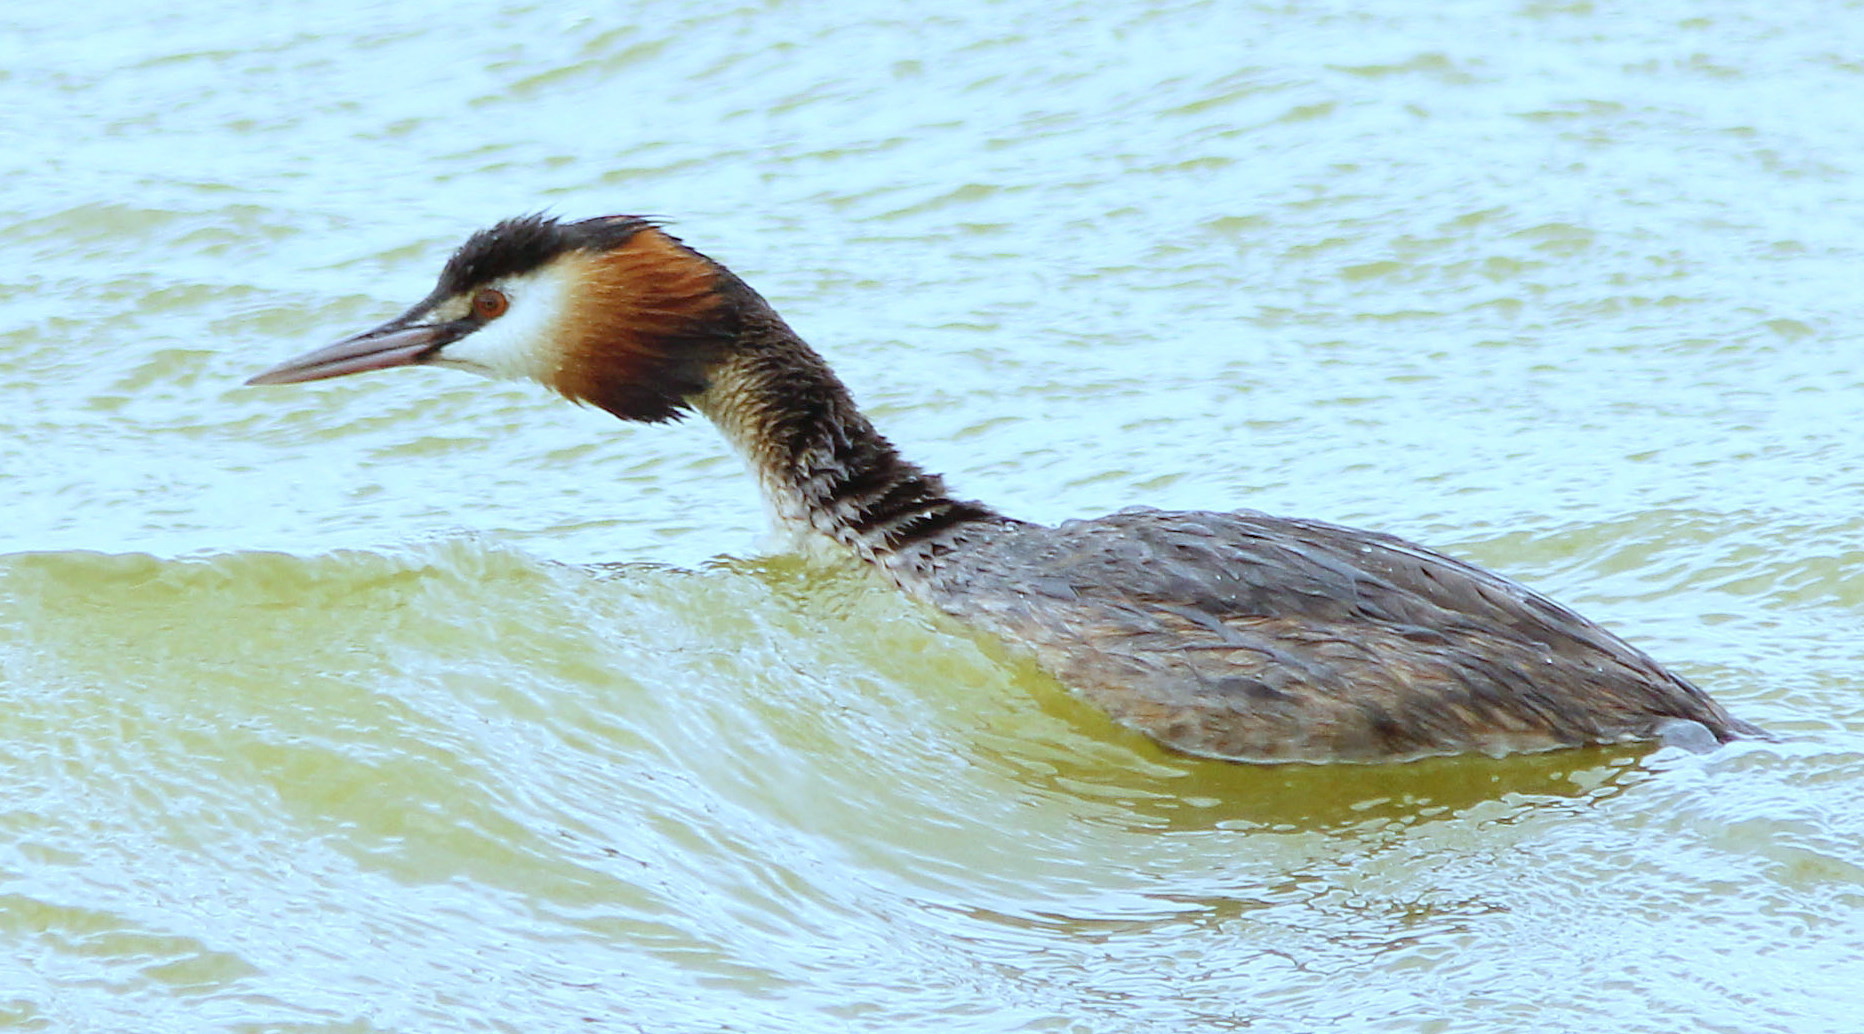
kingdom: Animalia
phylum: Chordata
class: Aves
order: Podicipediformes
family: Podicipedidae
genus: Podiceps
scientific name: Podiceps cristatus
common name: Great crested grebe
